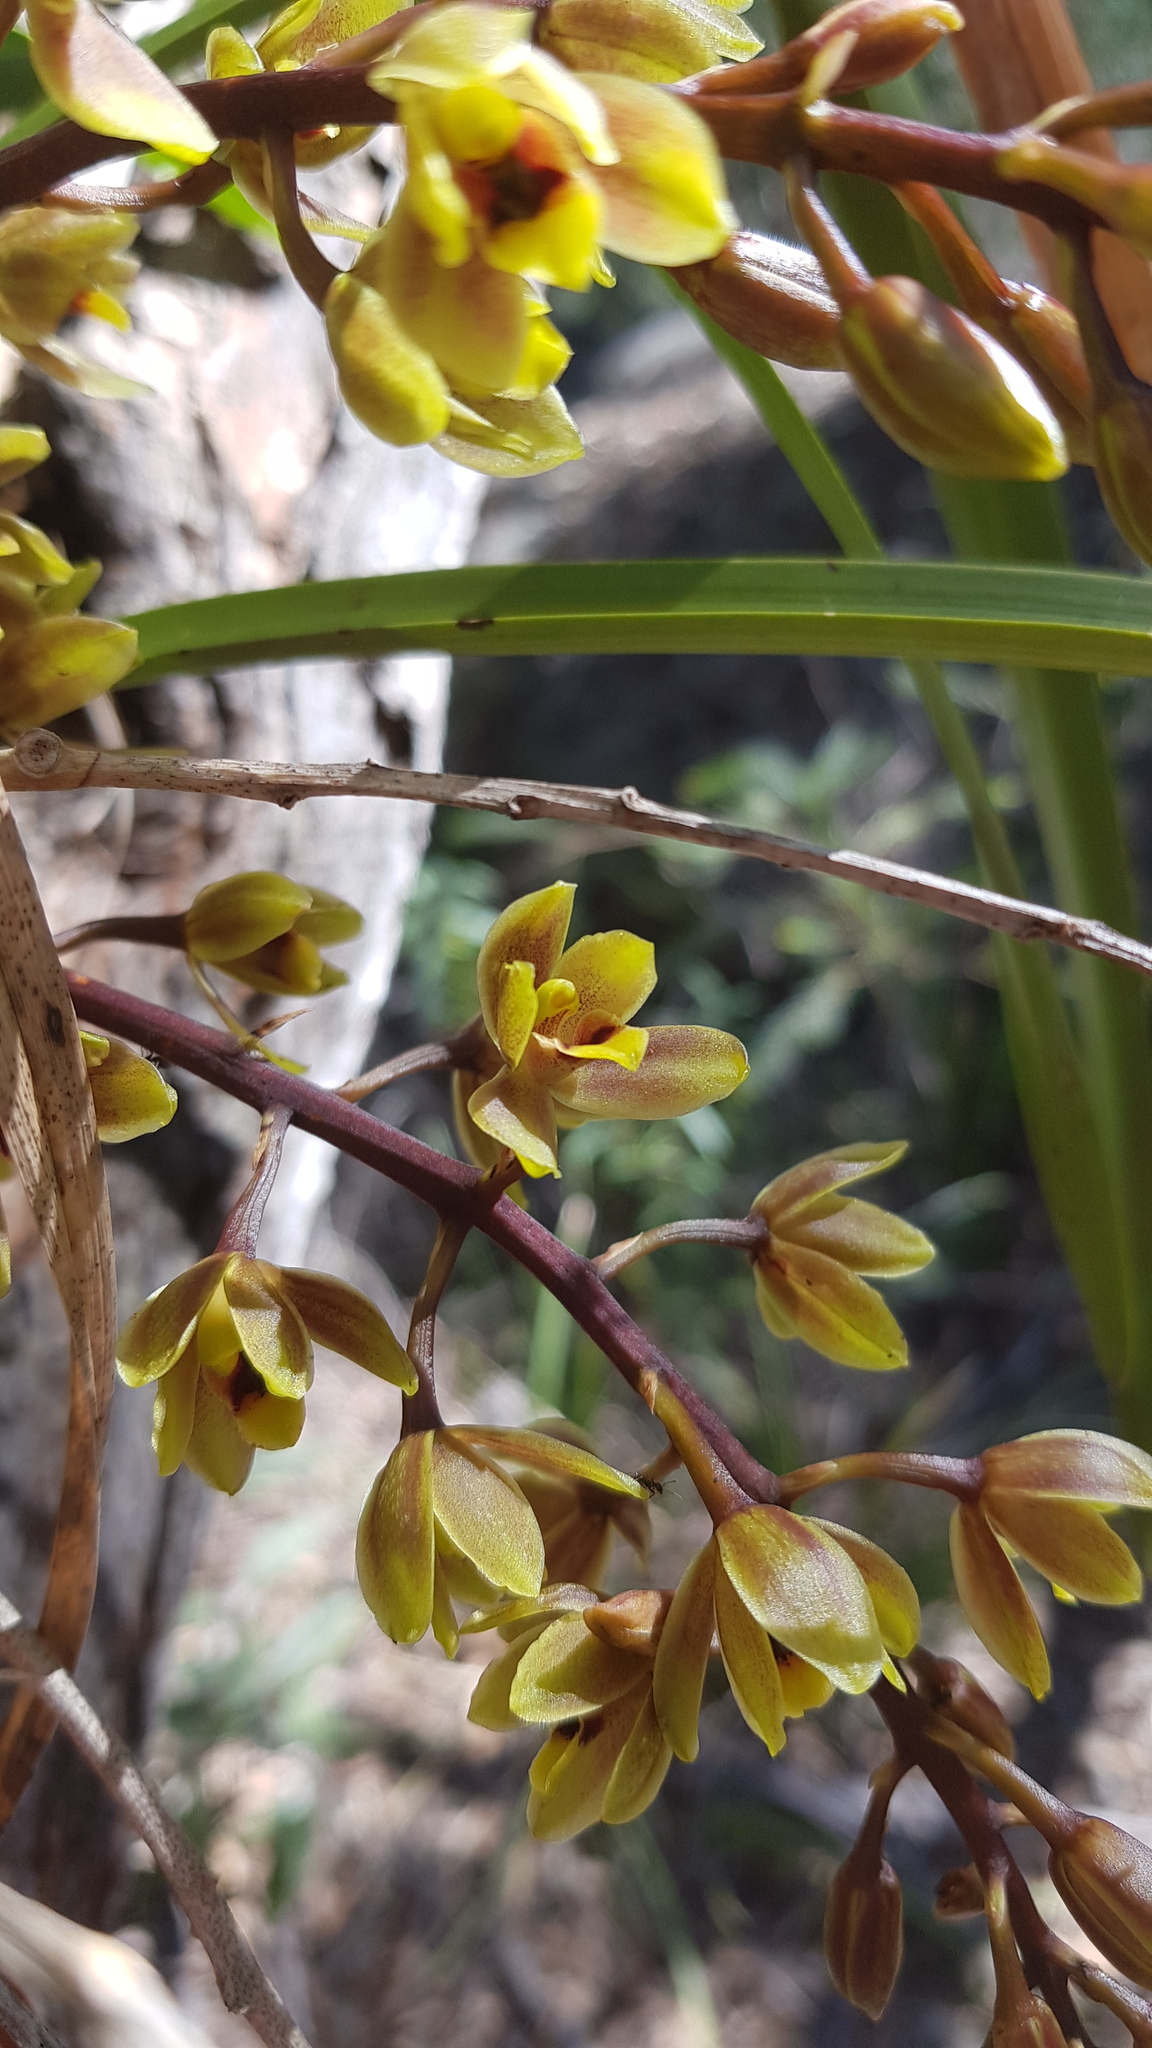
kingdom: Plantae
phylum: Tracheophyta
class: Liliopsida
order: Asparagales
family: Orchidaceae
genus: Cymbidium
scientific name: Cymbidium suave
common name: Snake orchid
